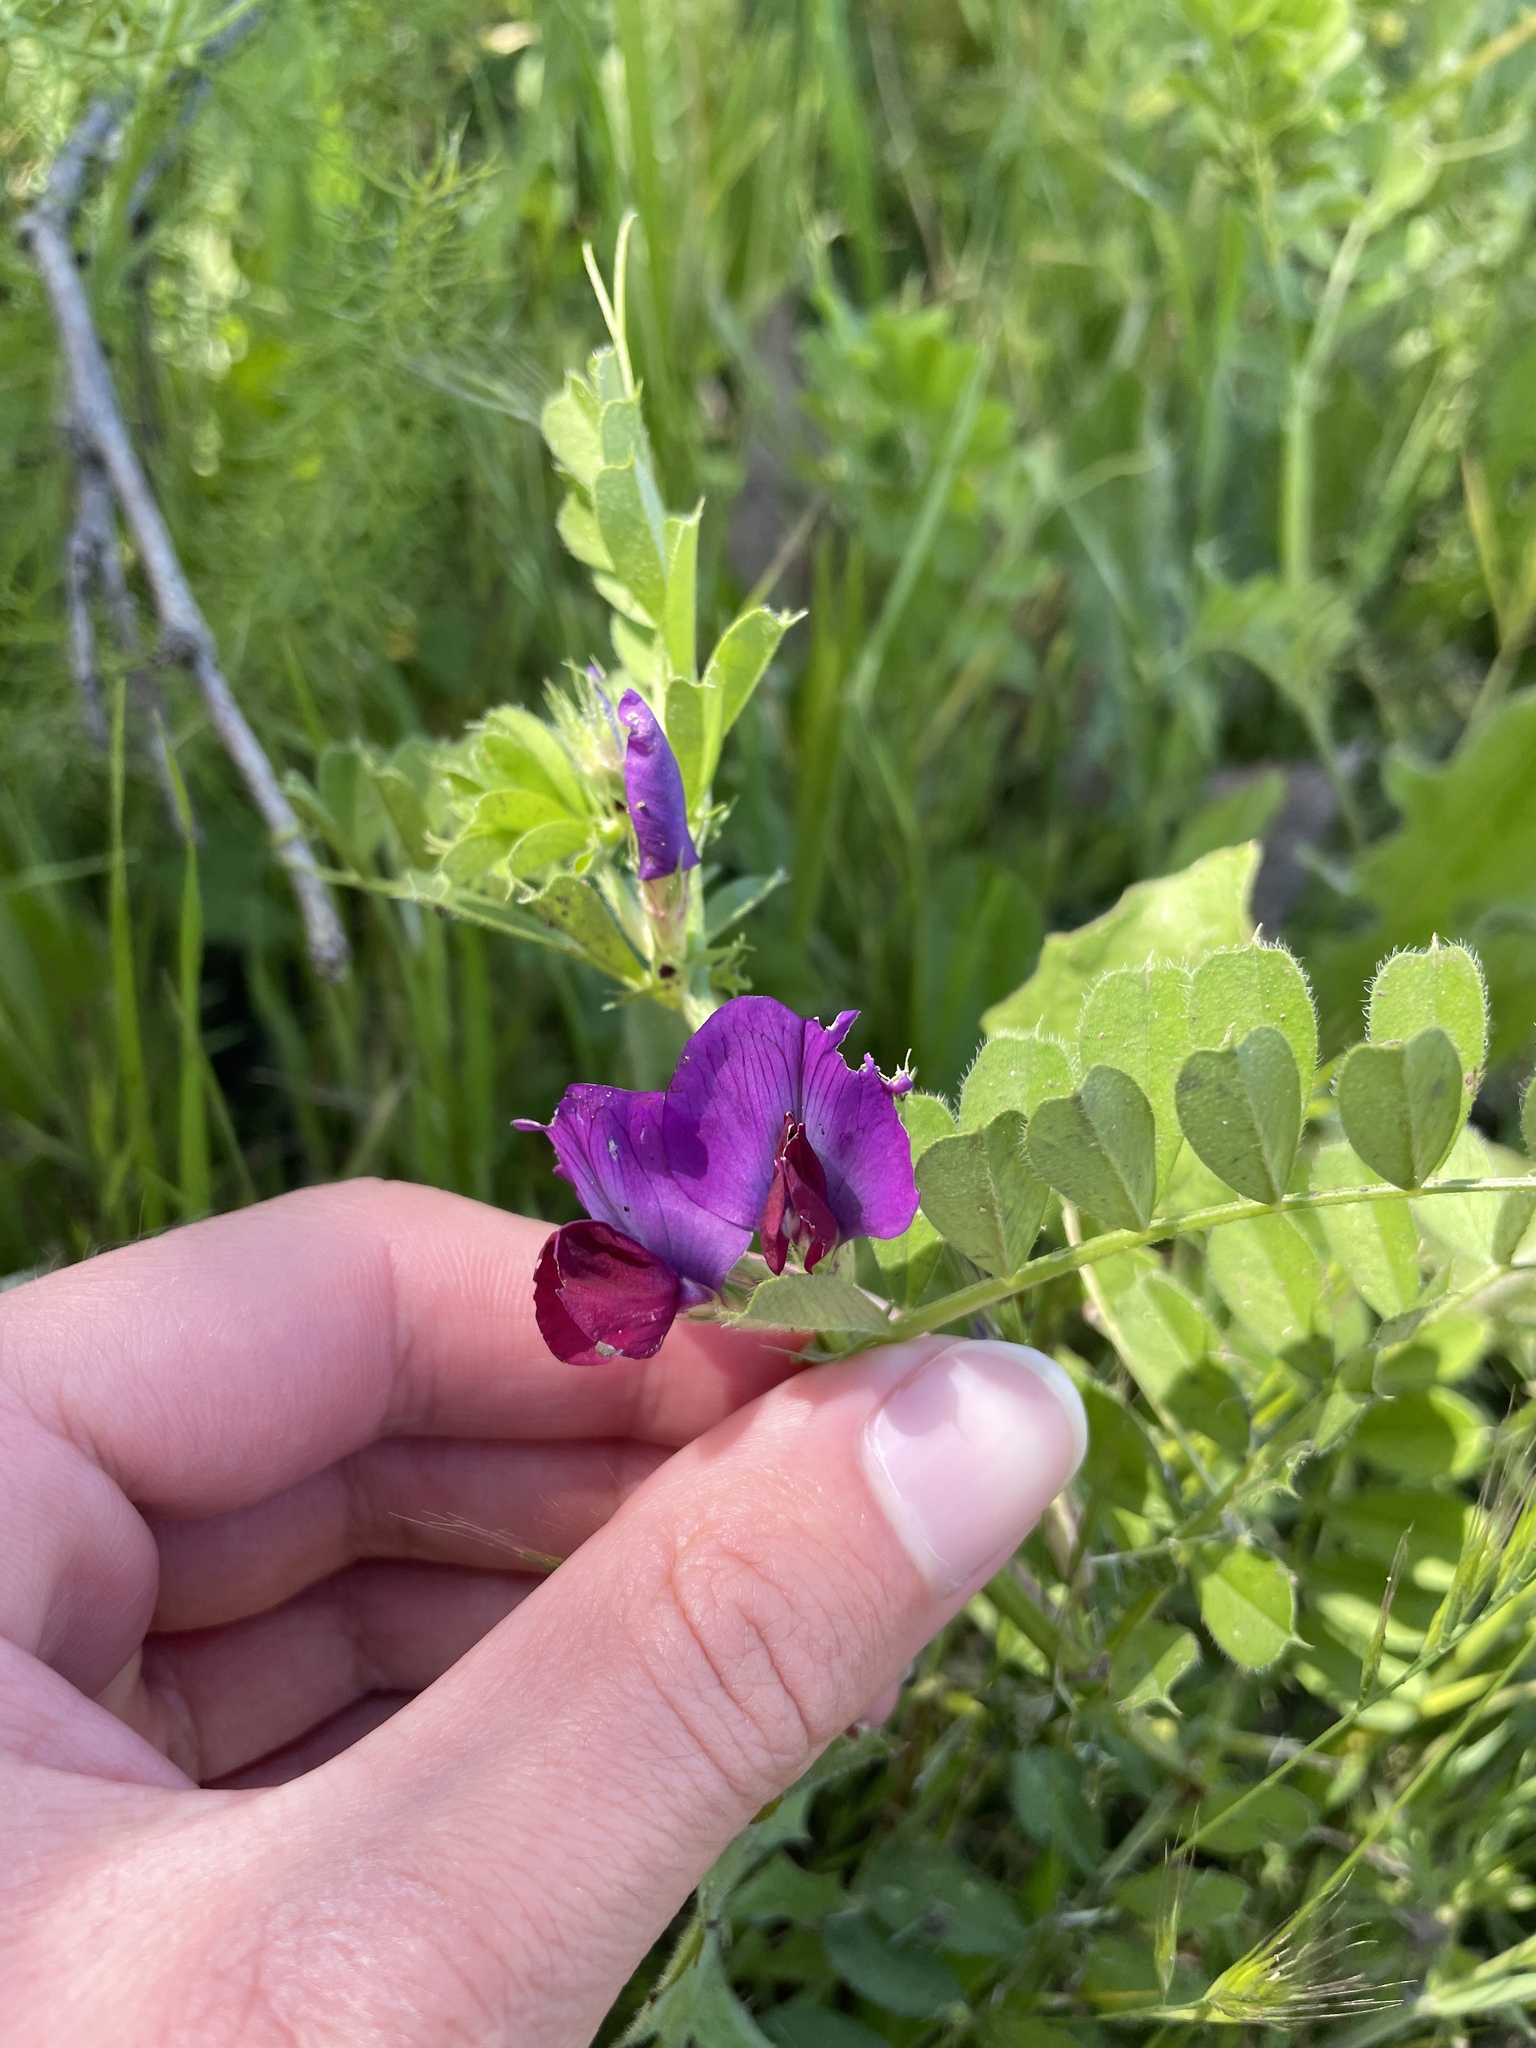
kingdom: Plantae
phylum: Tracheophyta
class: Magnoliopsida
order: Fabales
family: Fabaceae
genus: Vicia
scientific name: Vicia sativa
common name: Garden vetch
